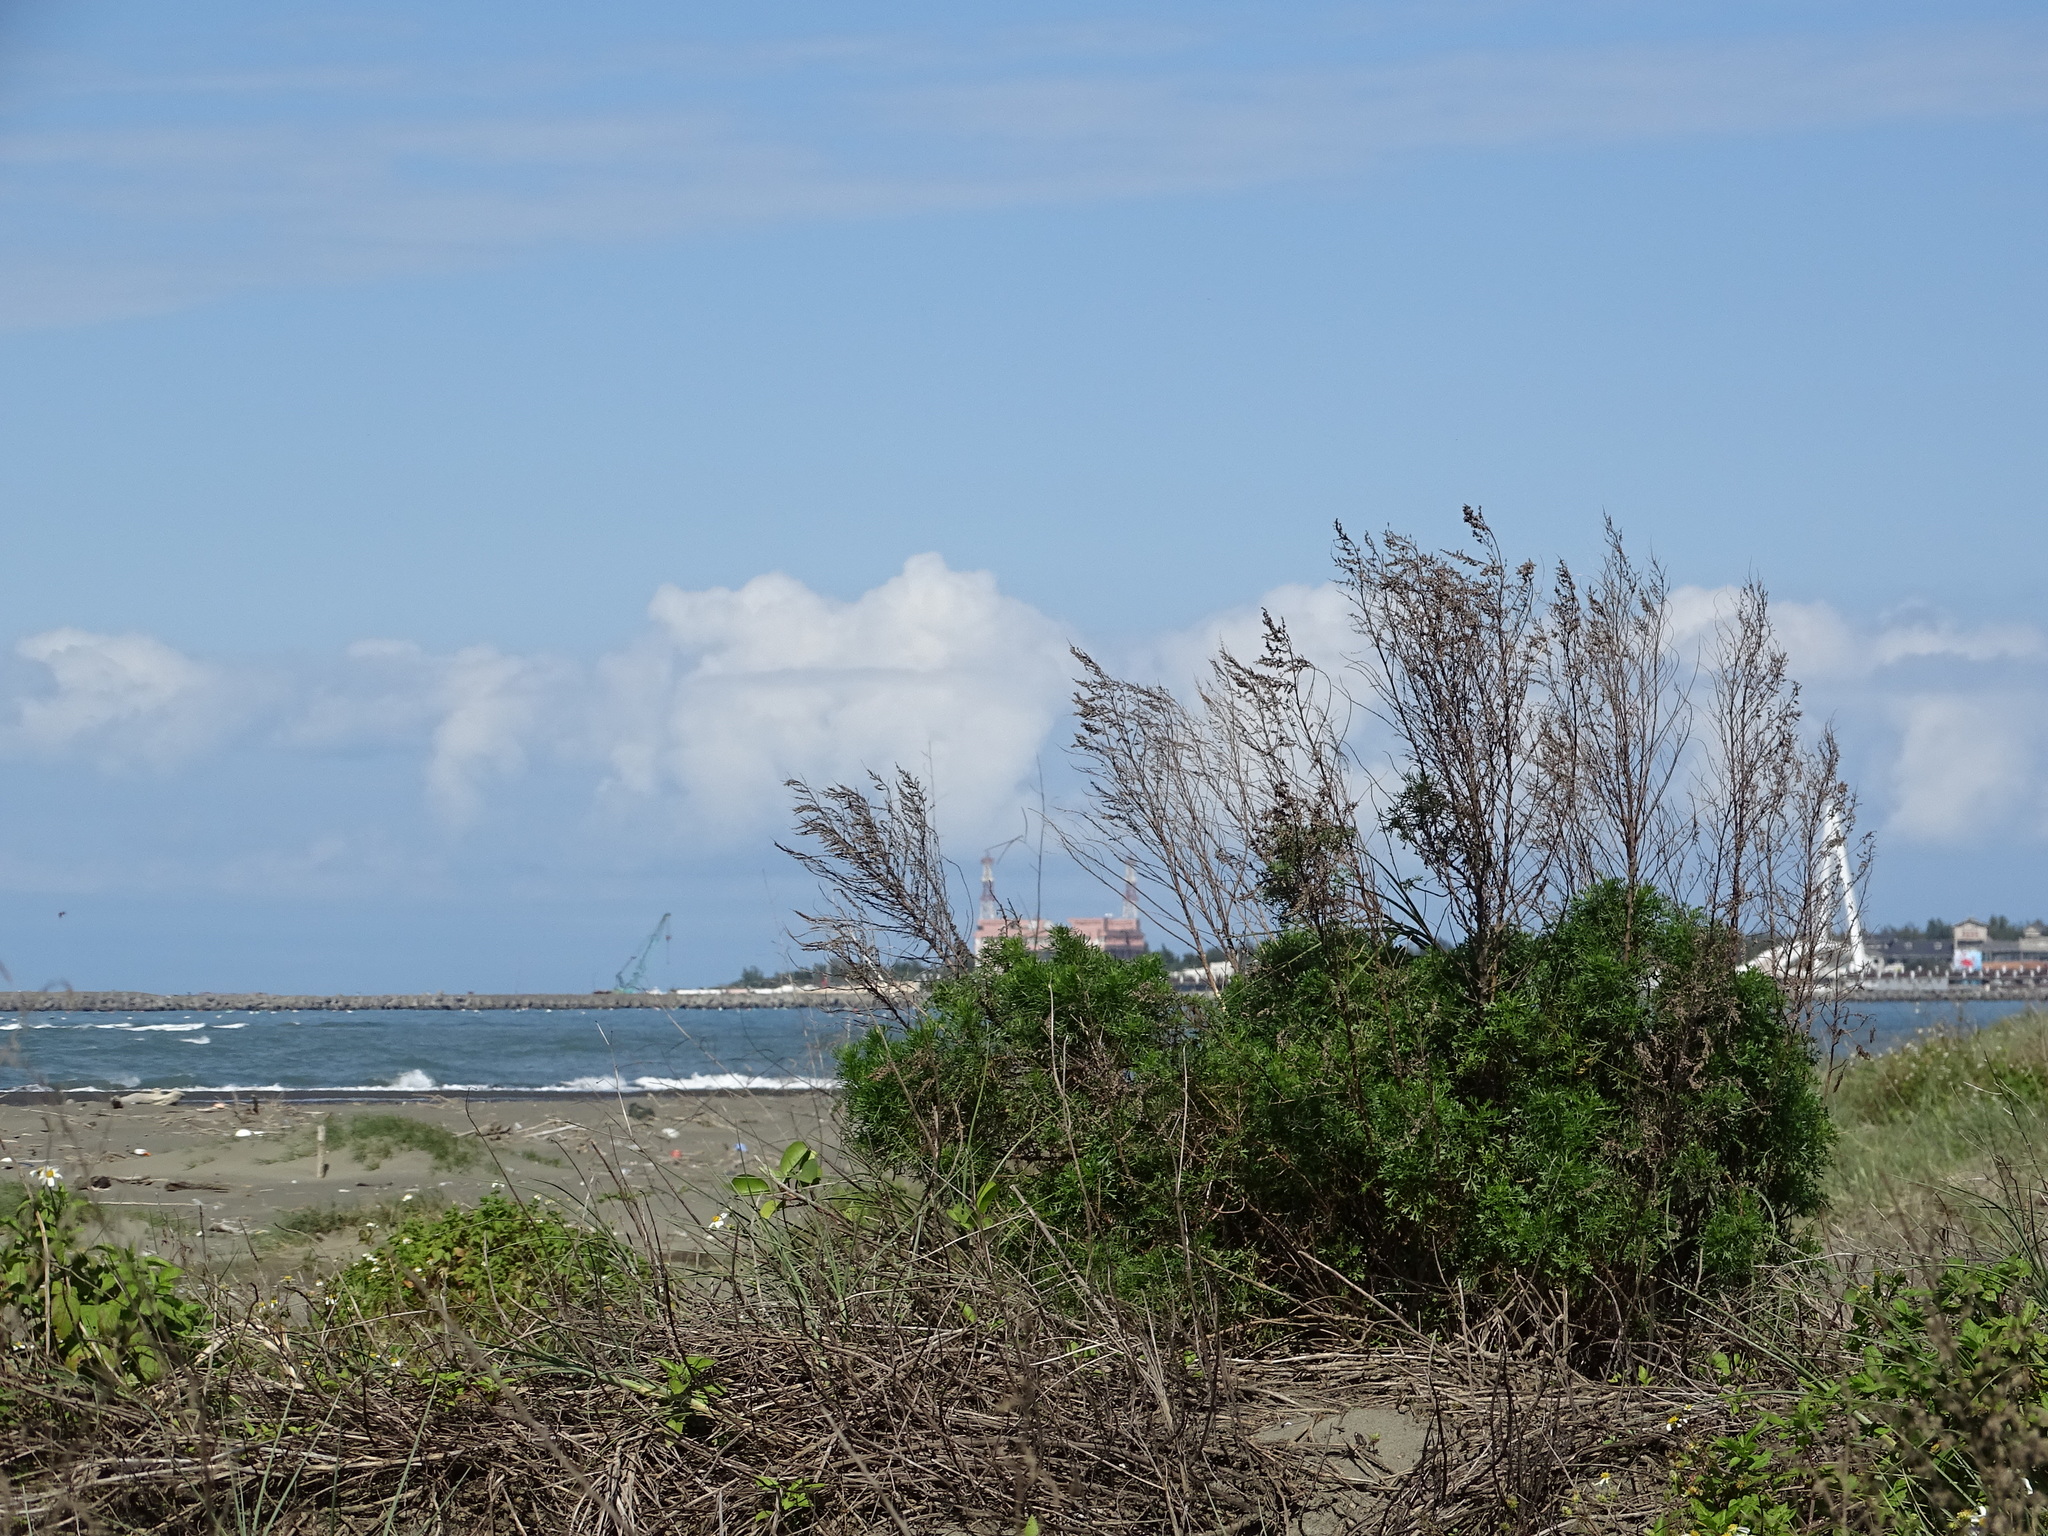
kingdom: Plantae
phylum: Tracheophyta
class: Magnoliopsida
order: Asterales
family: Asteraceae
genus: Artemisia
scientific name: Artemisia capillaris
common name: Yin-chen wormwood
